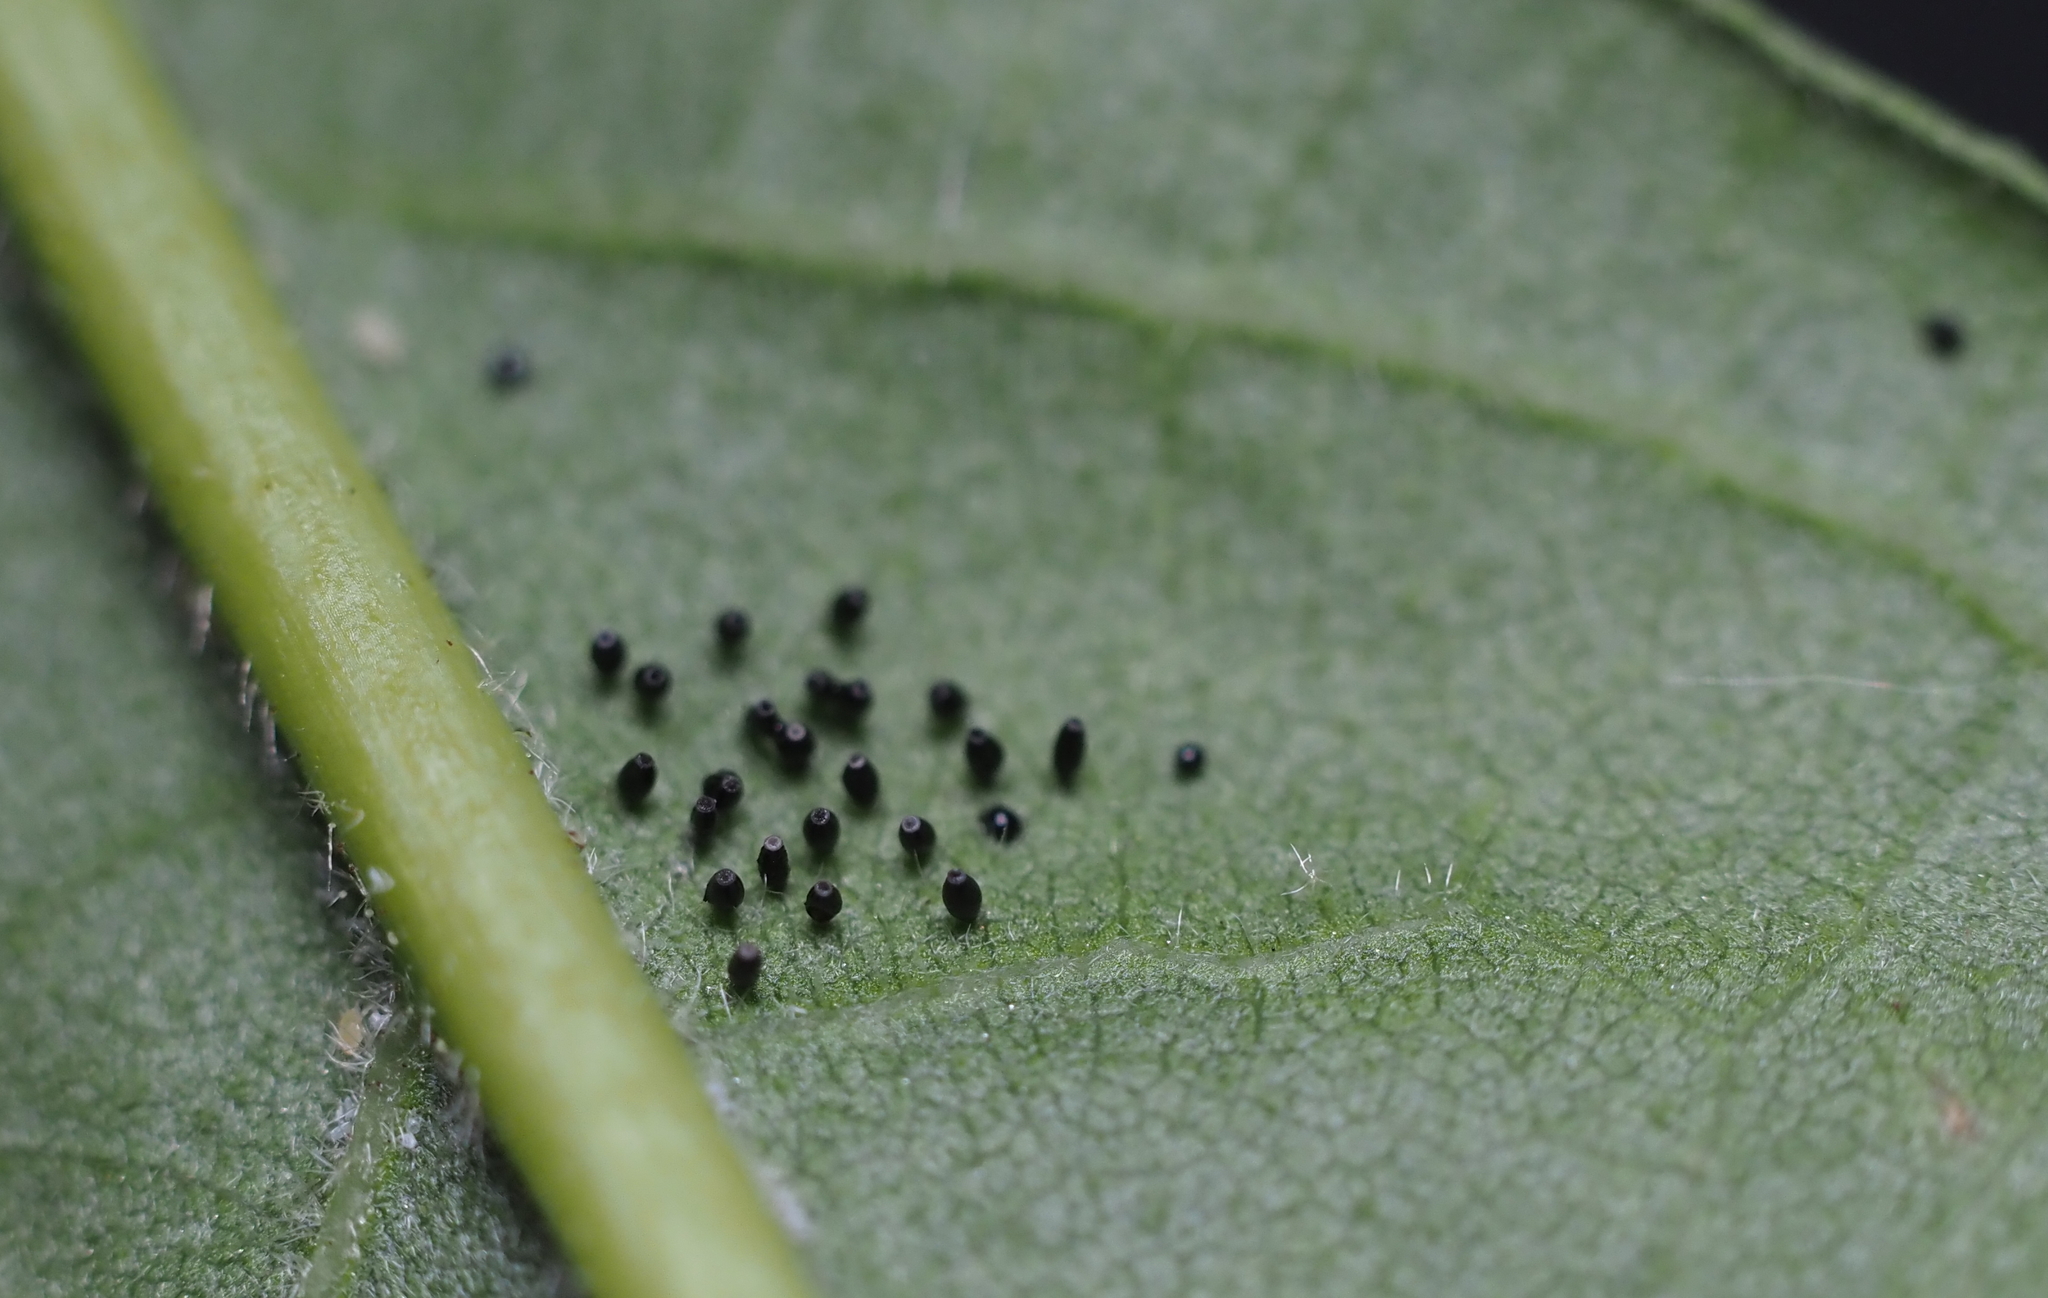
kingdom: Animalia
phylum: Arthropoda
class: Insecta
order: Hemiptera
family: Tingidae
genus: Corythucha
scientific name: Corythucha arcuata
